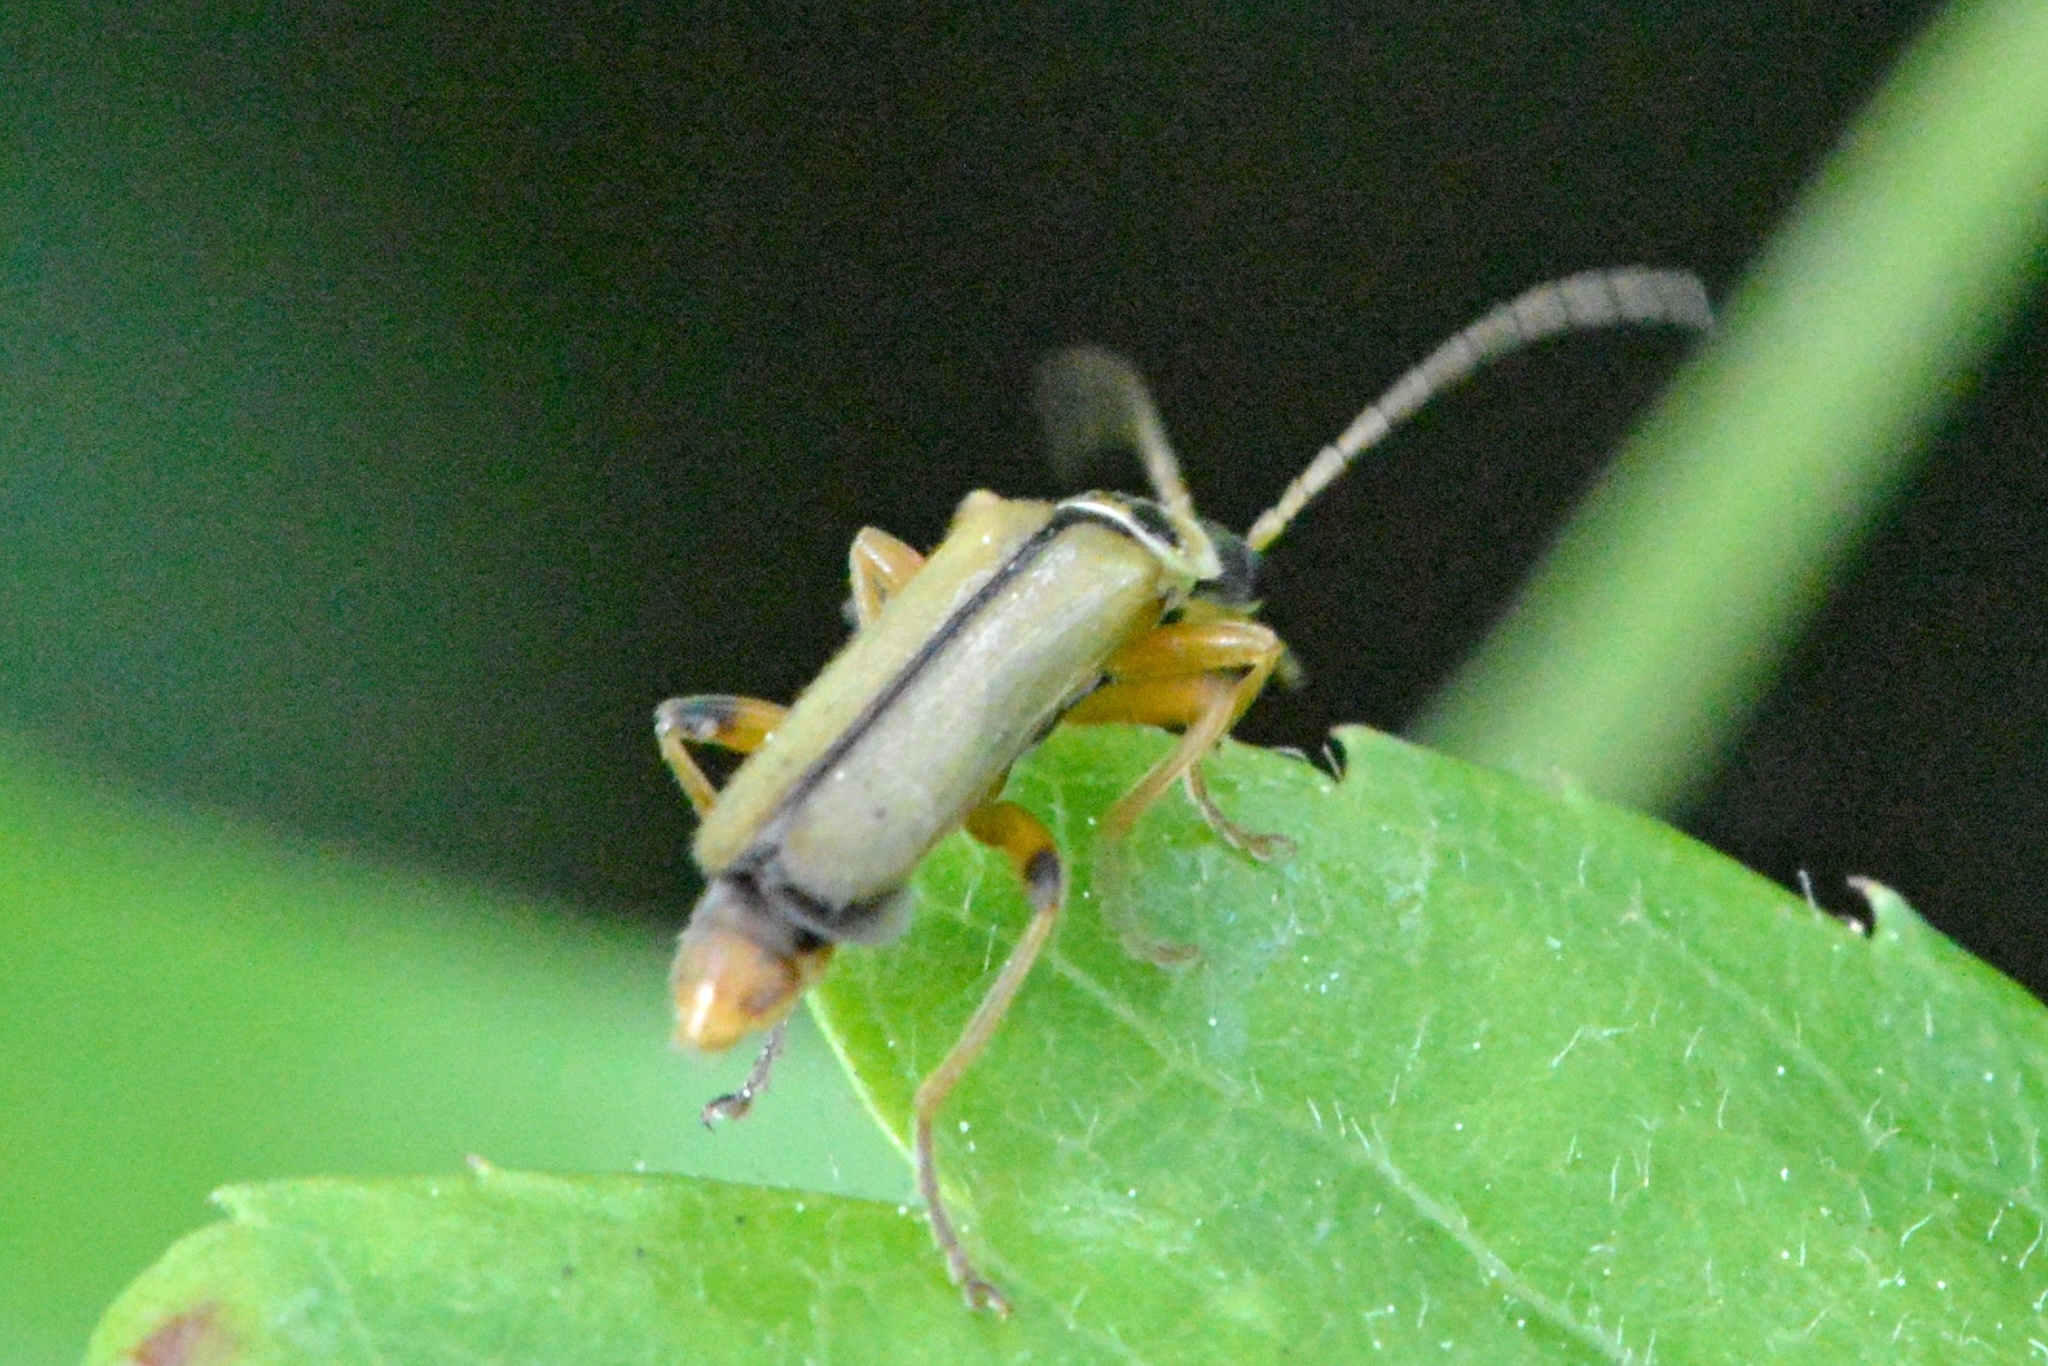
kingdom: Animalia
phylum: Arthropoda
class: Insecta
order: Coleoptera
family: Cantharidae
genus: Metacantharis
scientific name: Metacantharis clypeata
